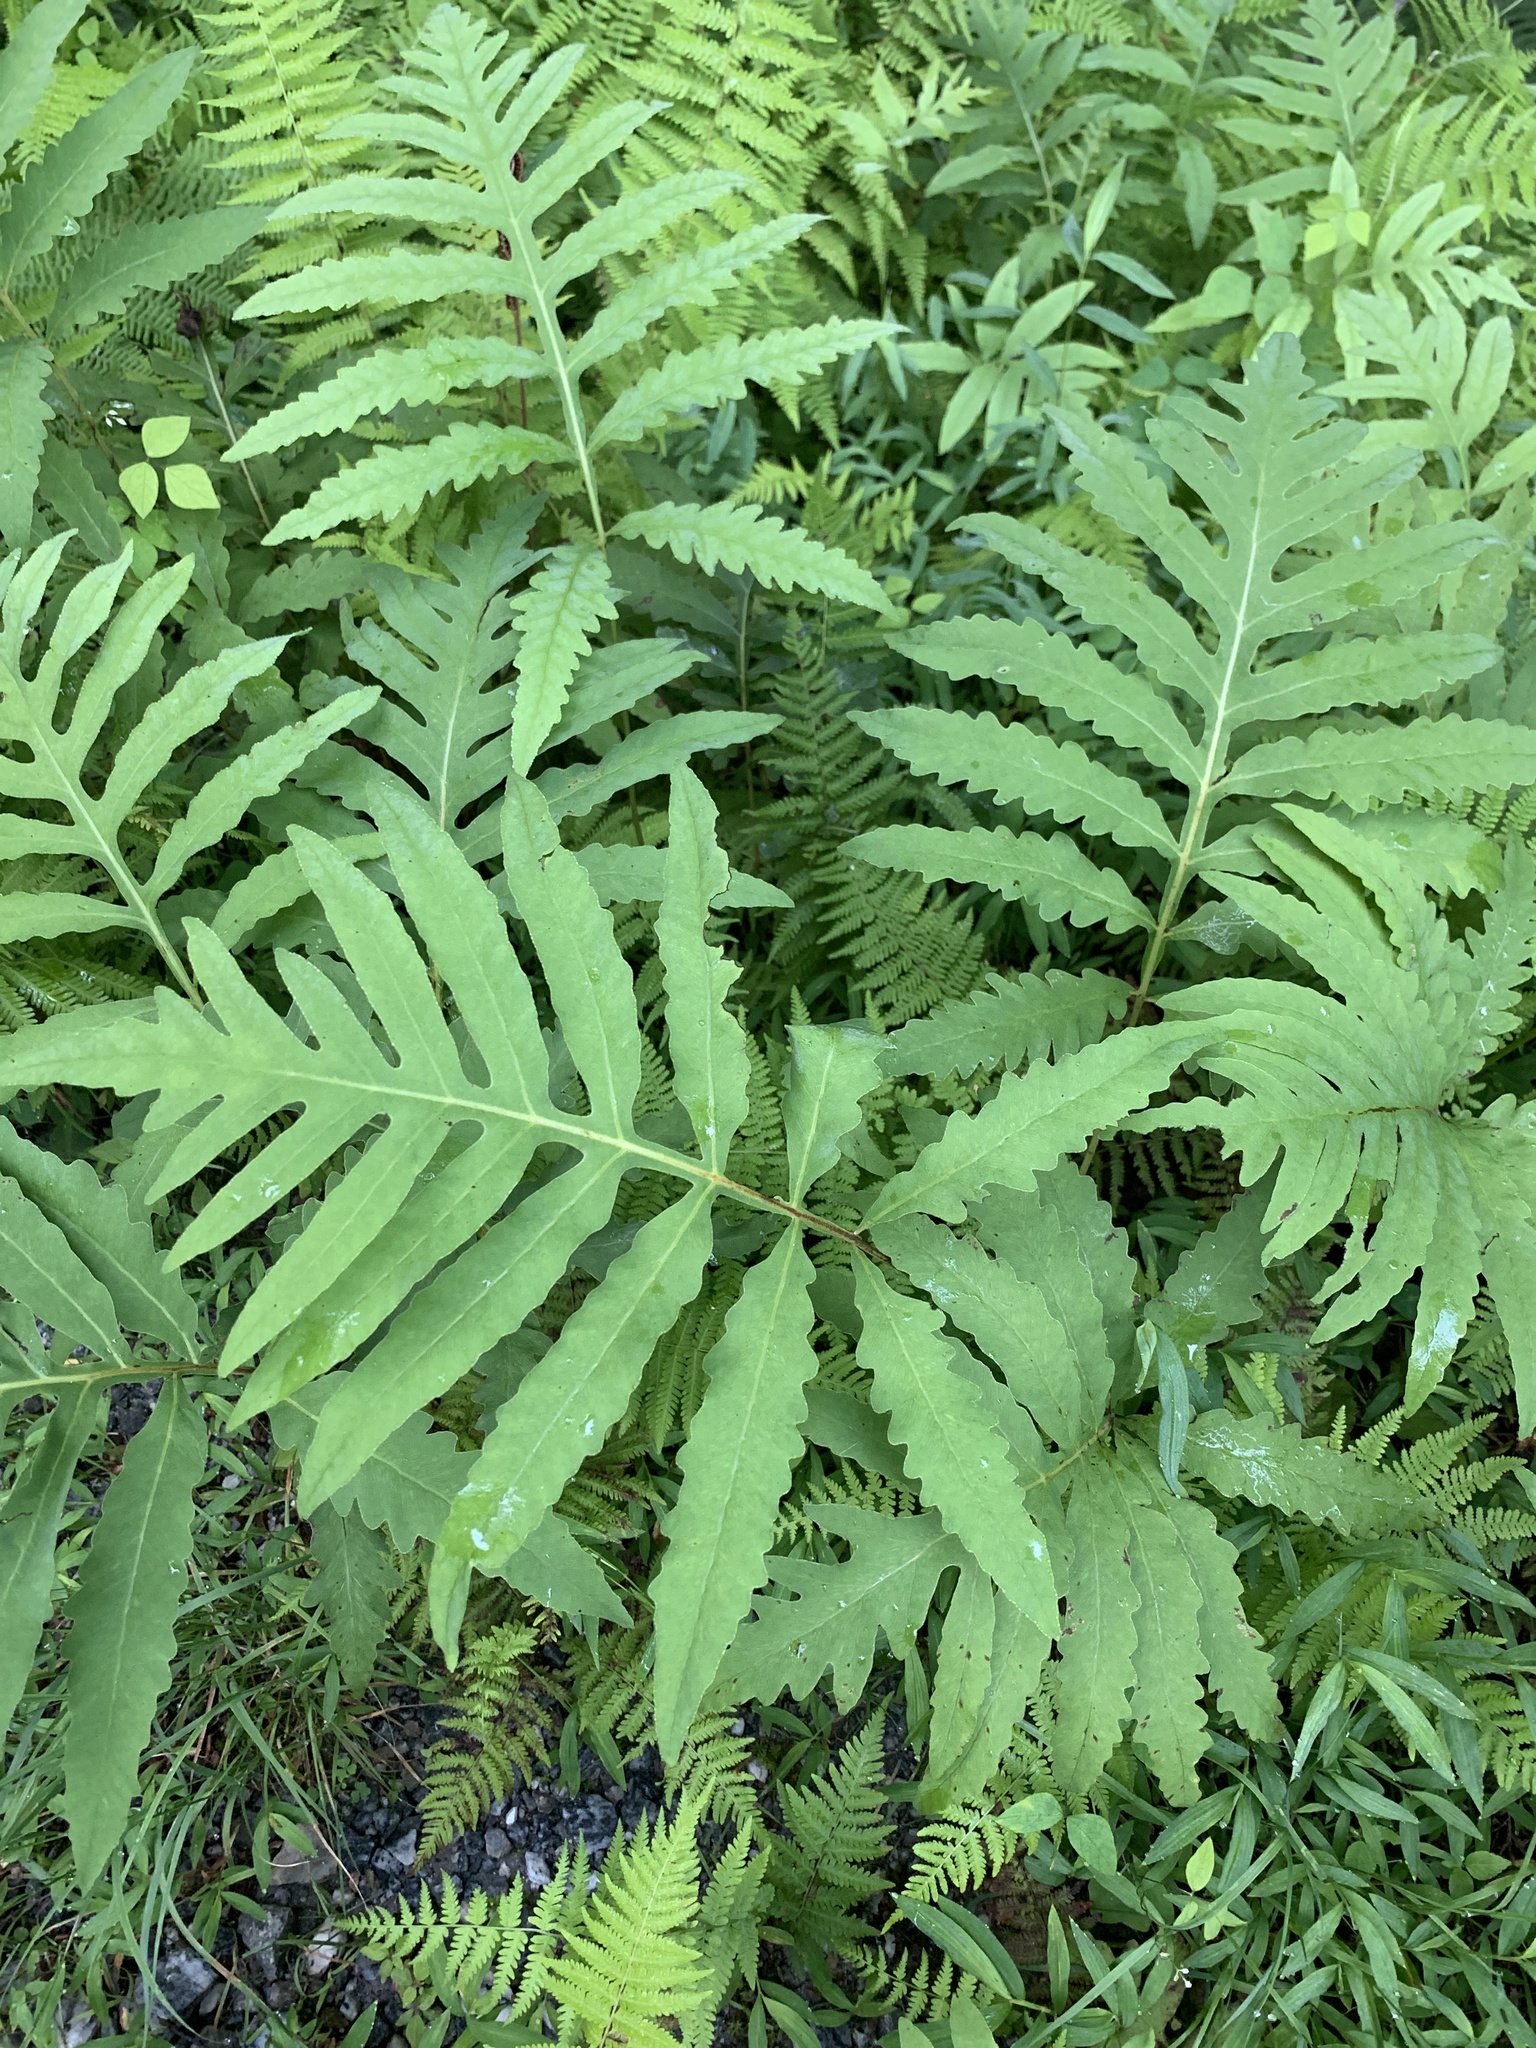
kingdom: Plantae
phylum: Tracheophyta
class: Polypodiopsida
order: Polypodiales
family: Onocleaceae
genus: Onoclea
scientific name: Onoclea sensibilis
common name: Sensitive fern
